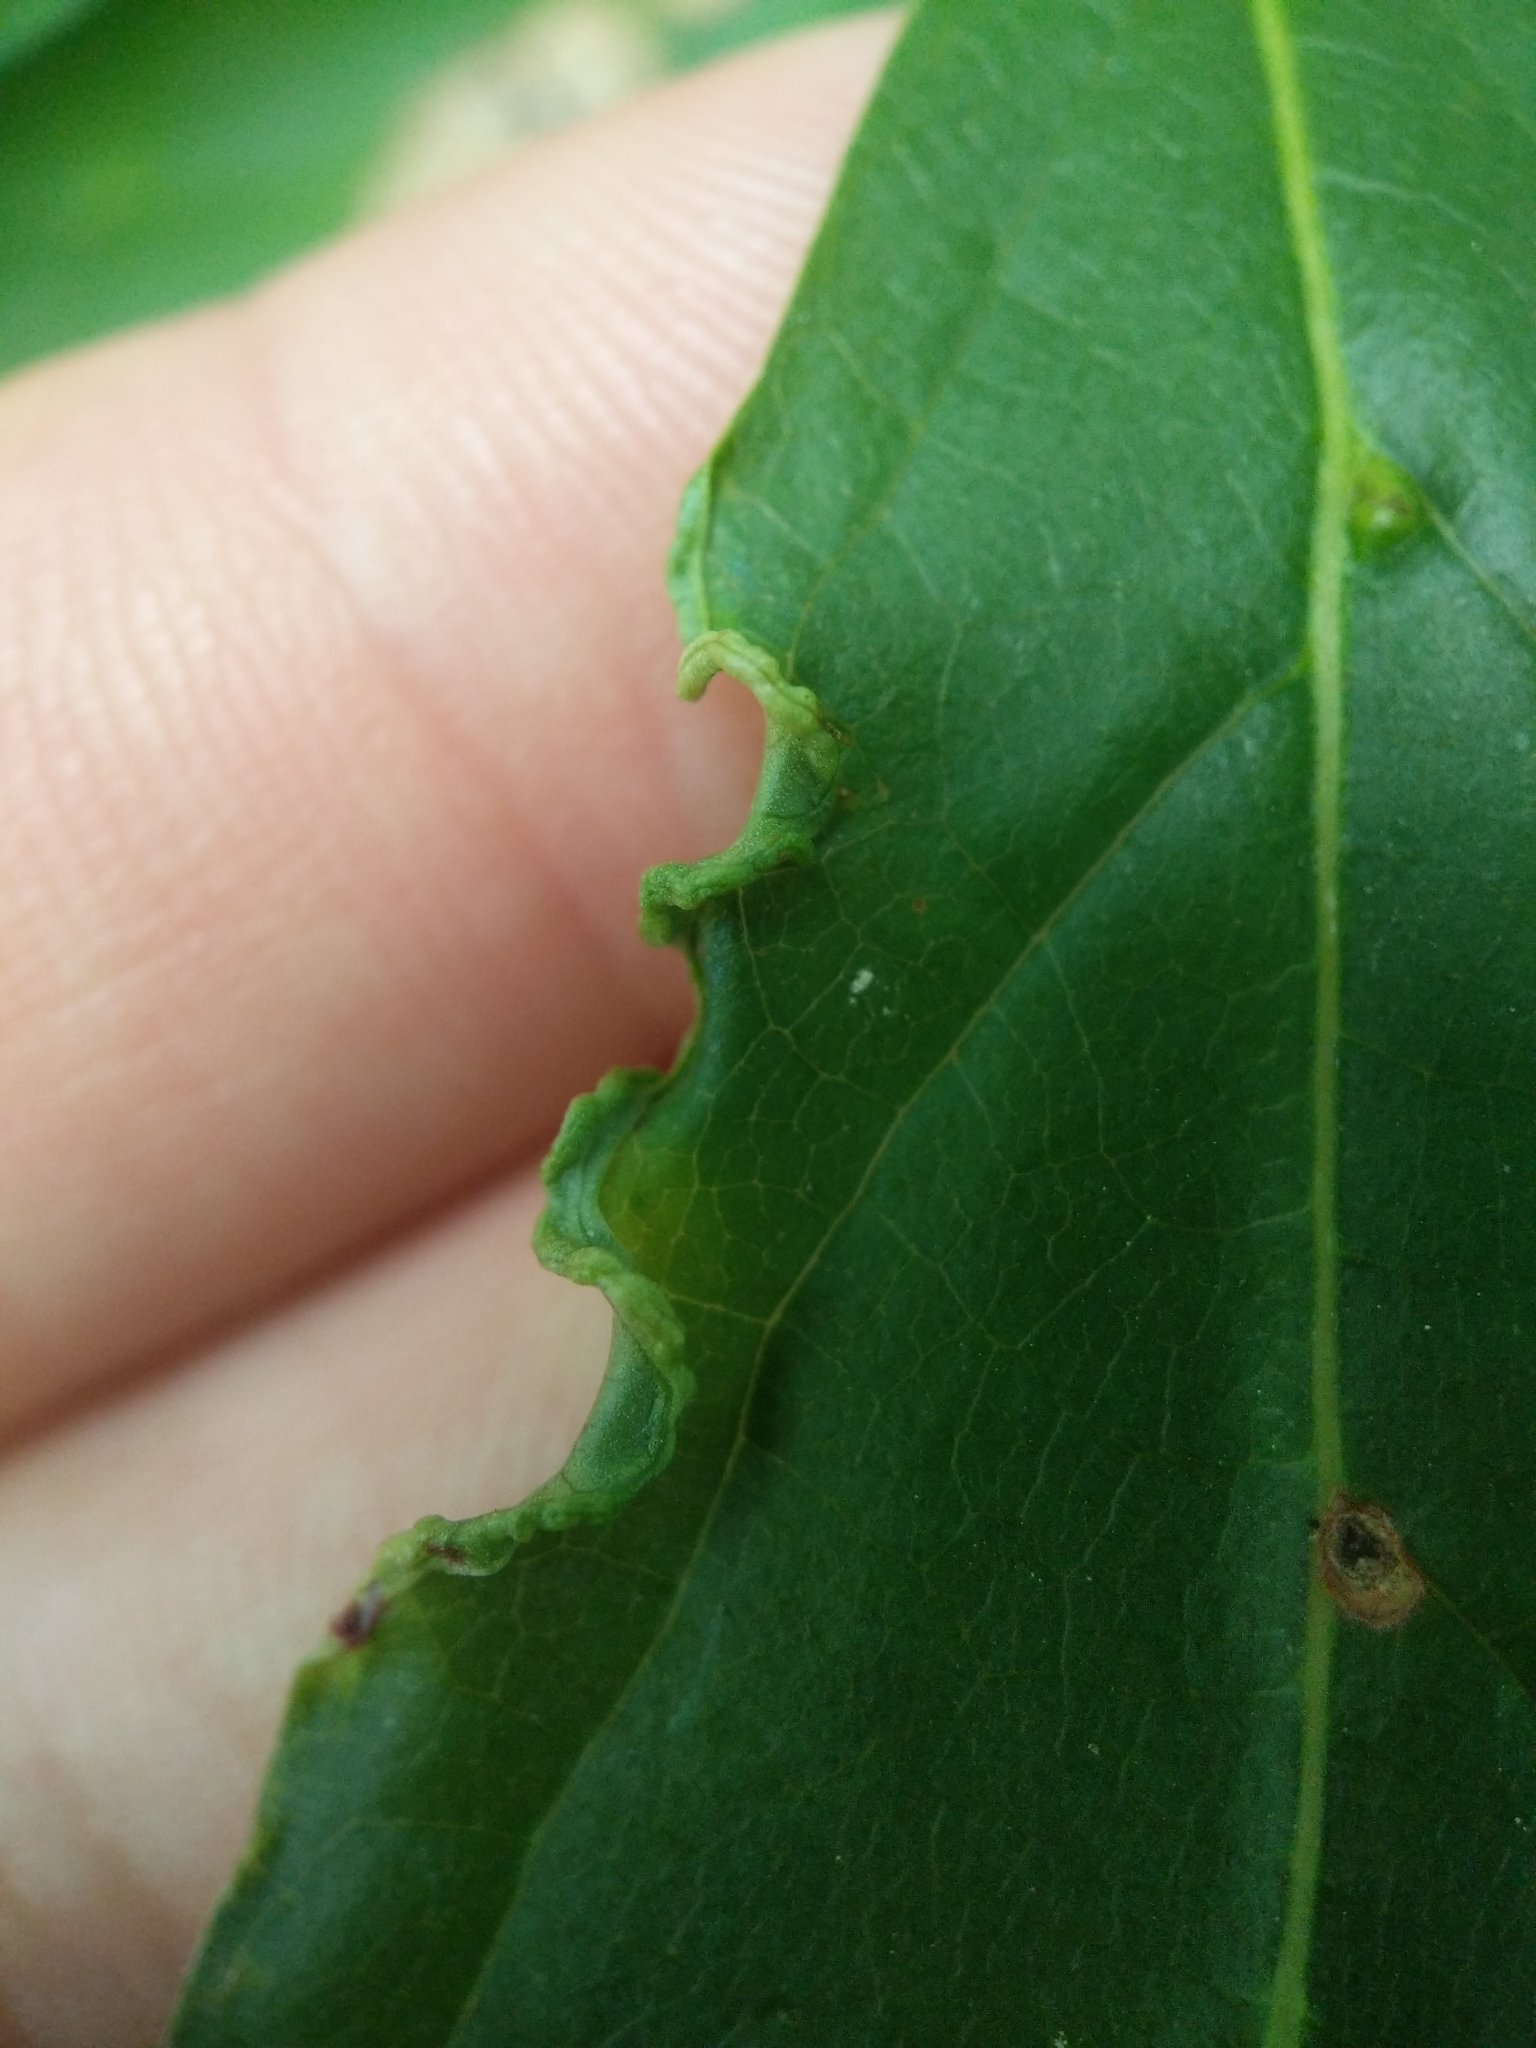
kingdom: Animalia
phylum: Arthropoda
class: Arachnida
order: Trombidiformes
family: Eriophyidae
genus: Aceria
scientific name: Aceria
